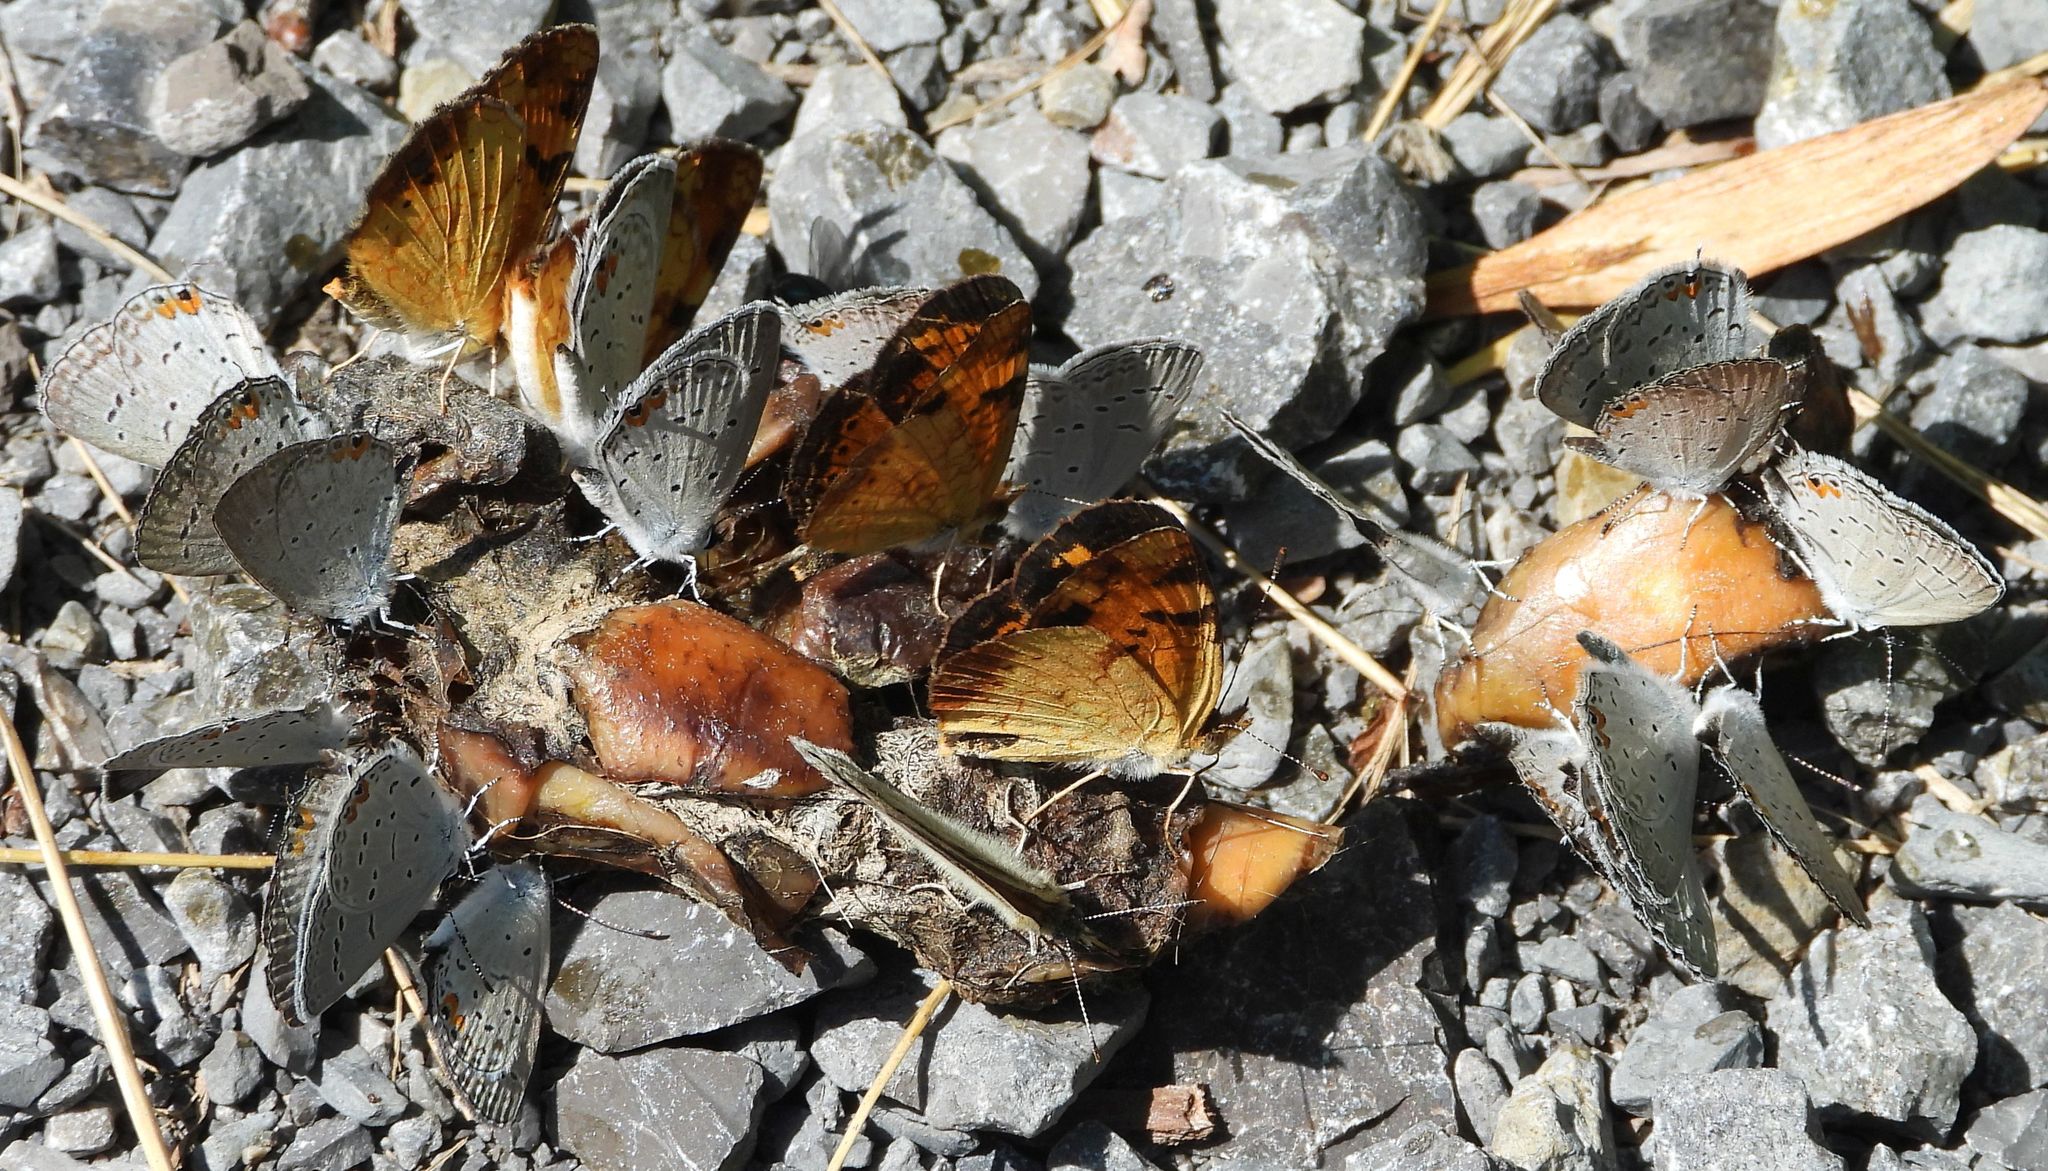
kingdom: Animalia
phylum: Arthropoda
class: Insecta
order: Lepidoptera
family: Lycaenidae
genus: Elkalyce
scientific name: Elkalyce comyntas
